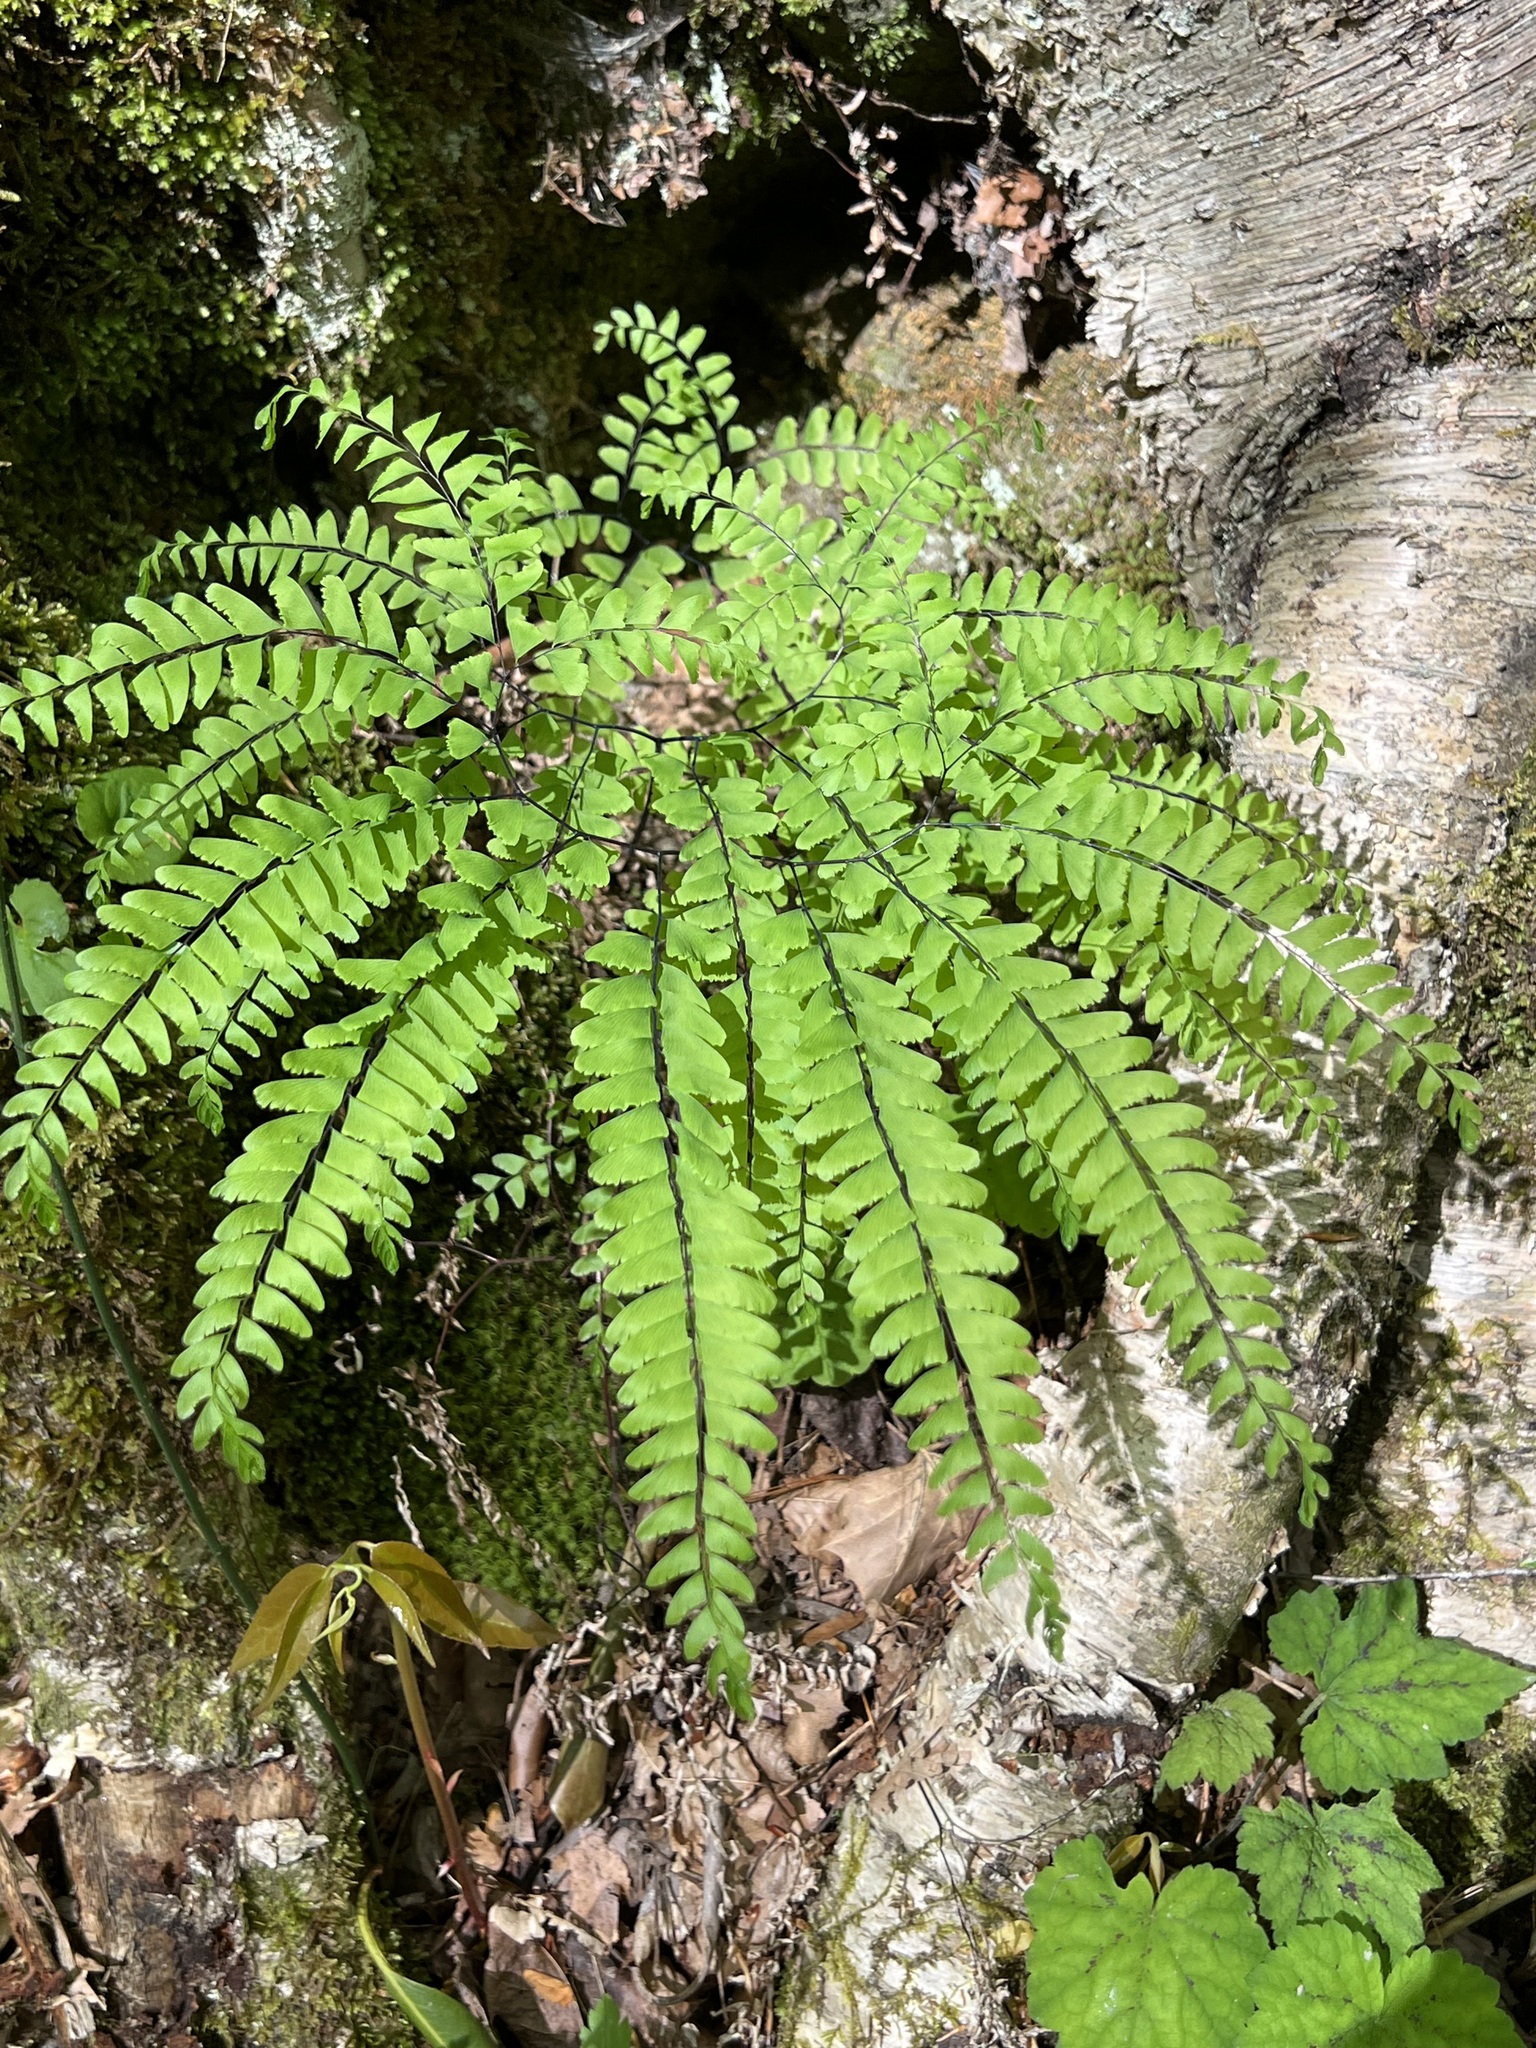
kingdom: Plantae
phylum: Tracheophyta
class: Polypodiopsida
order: Polypodiales
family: Pteridaceae
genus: Adiantum
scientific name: Adiantum pedatum
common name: Five-finger fern
